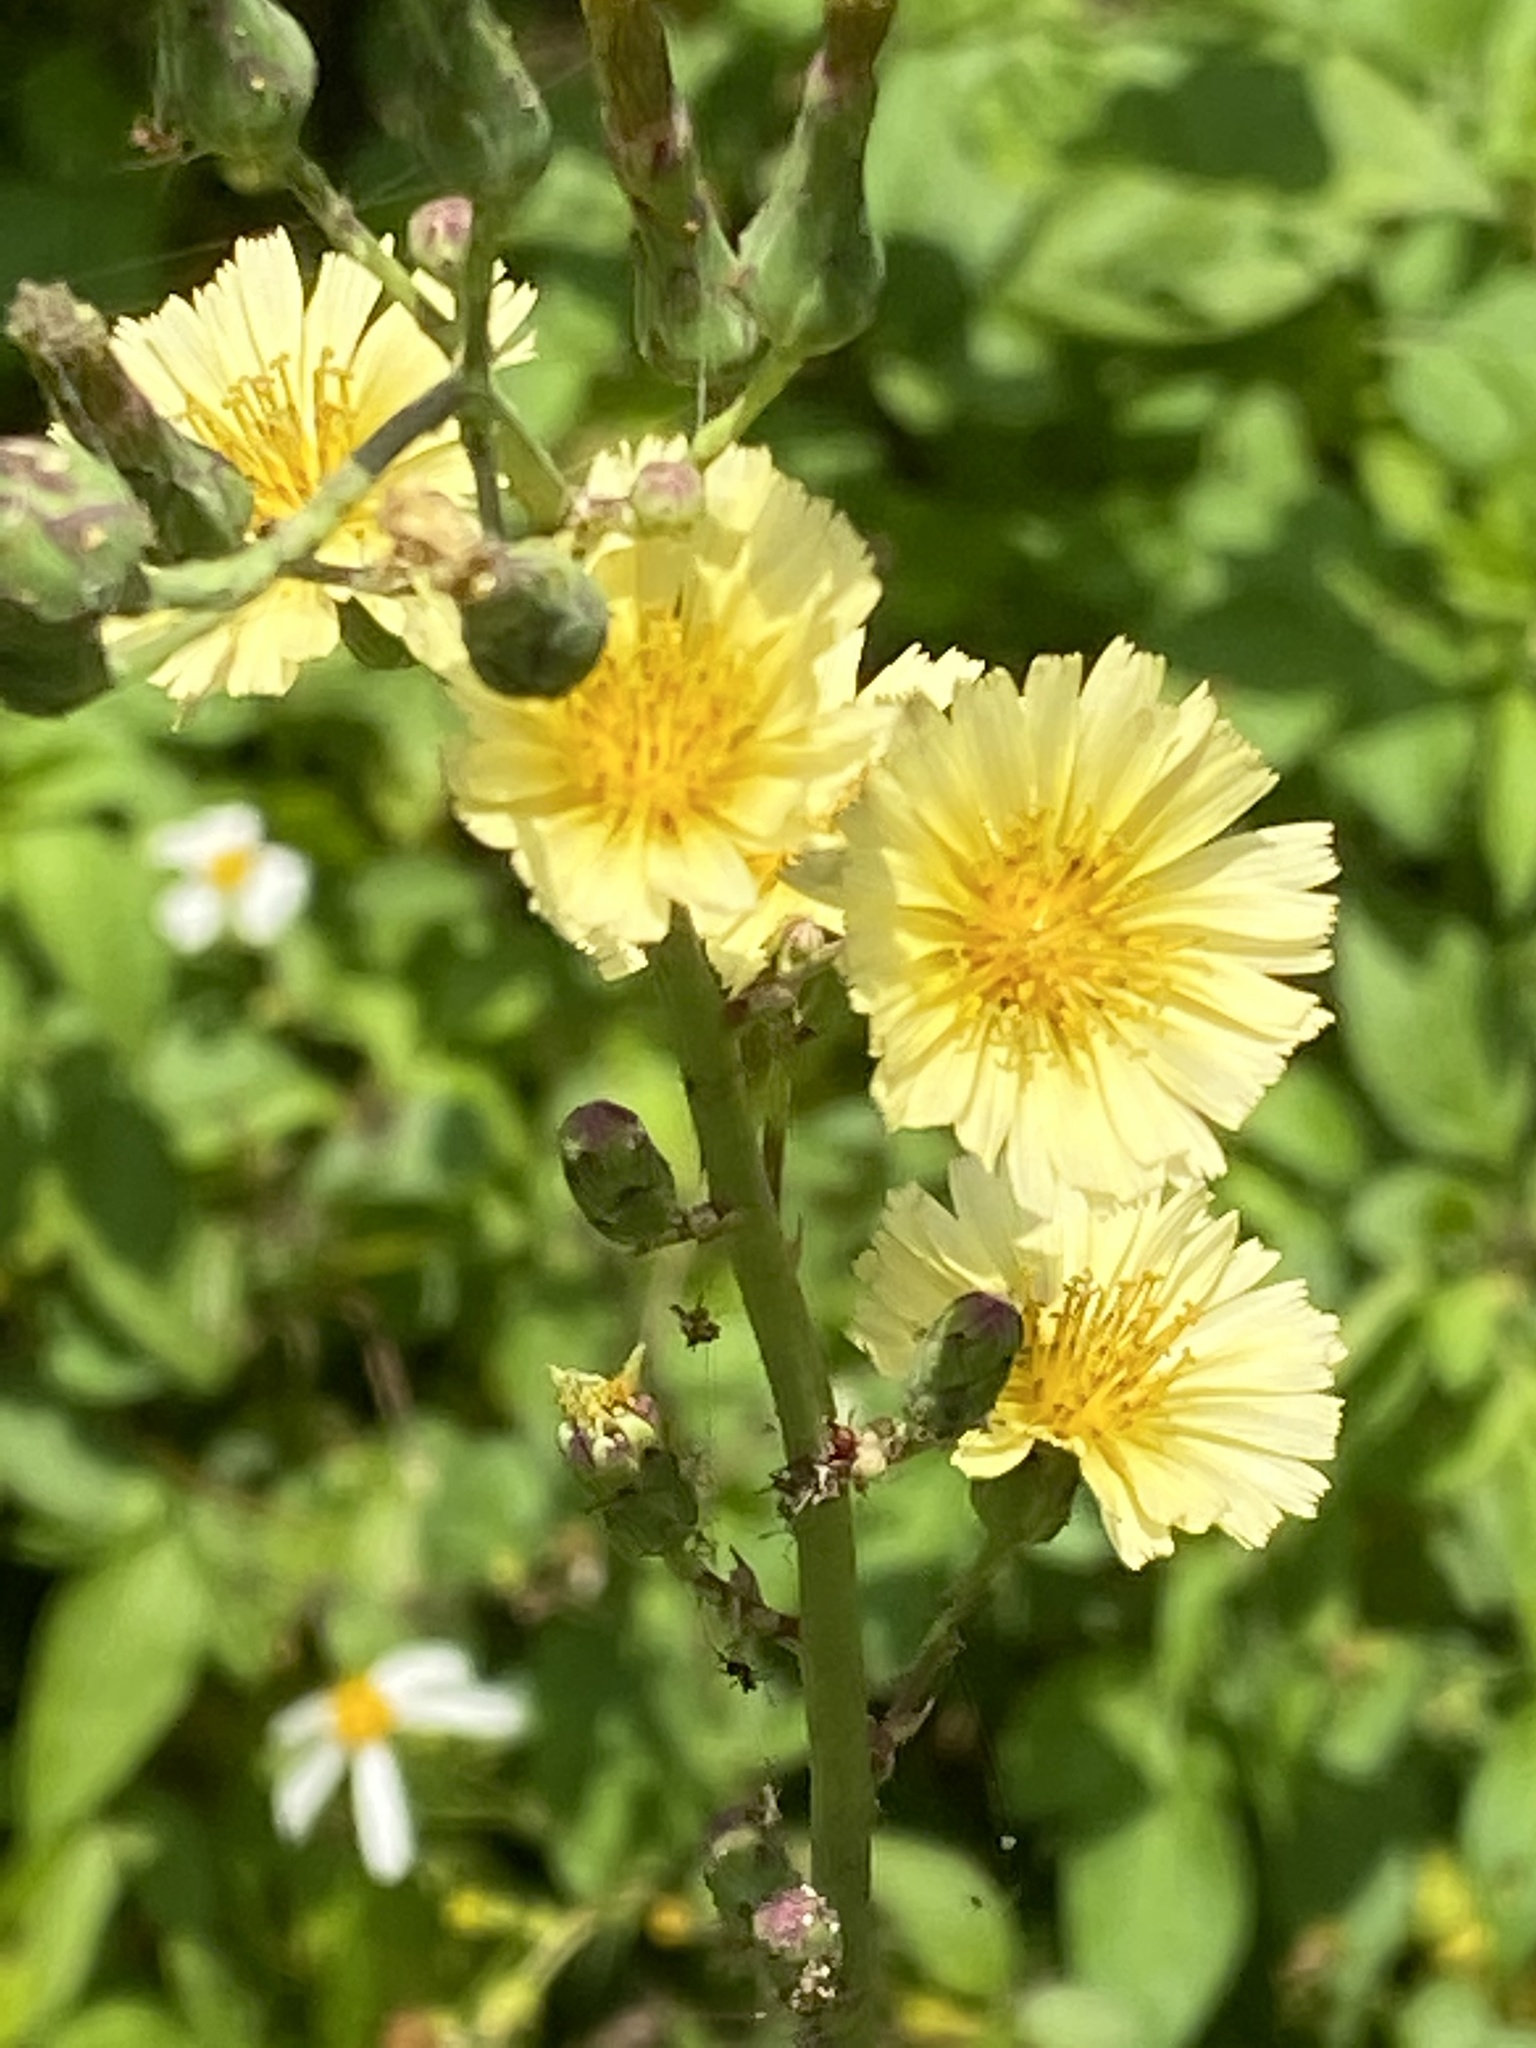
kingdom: Plantae
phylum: Tracheophyta
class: Magnoliopsida
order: Asterales
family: Asteraceae
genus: Lactuca
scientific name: Lactuca serriola
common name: Prickly lettuce
